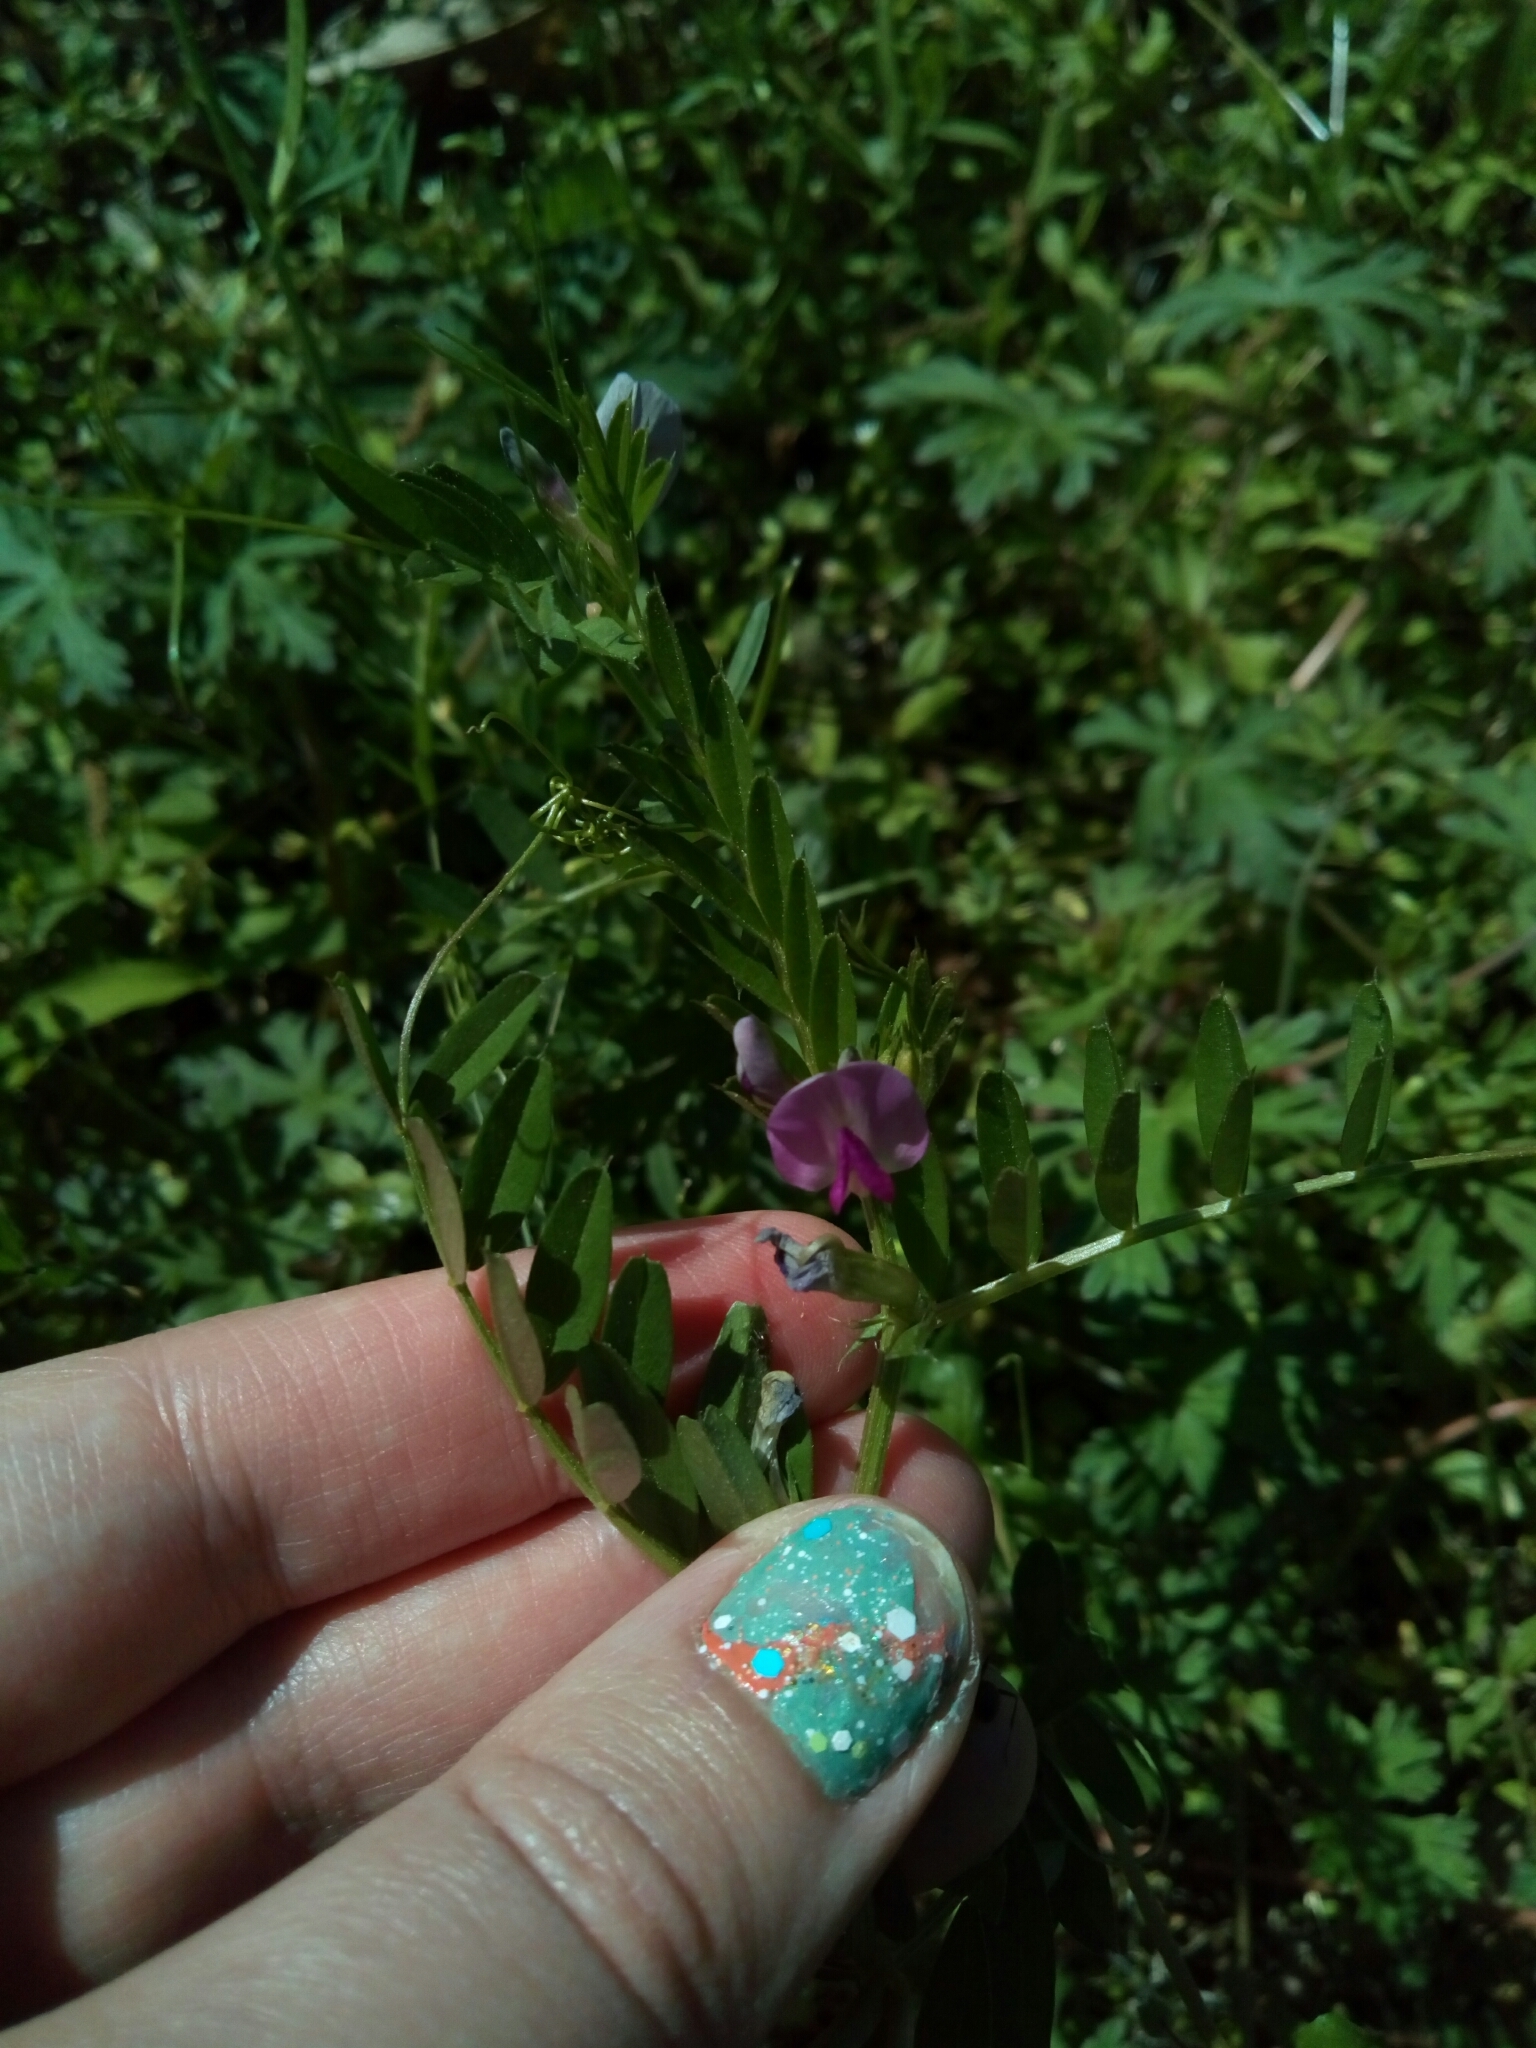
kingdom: Plantae
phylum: Tracheophyta
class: Magnoliopsida
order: Fabales
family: Fabaceae
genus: Vicia
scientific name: Vicia sativa
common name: Garden vetch
